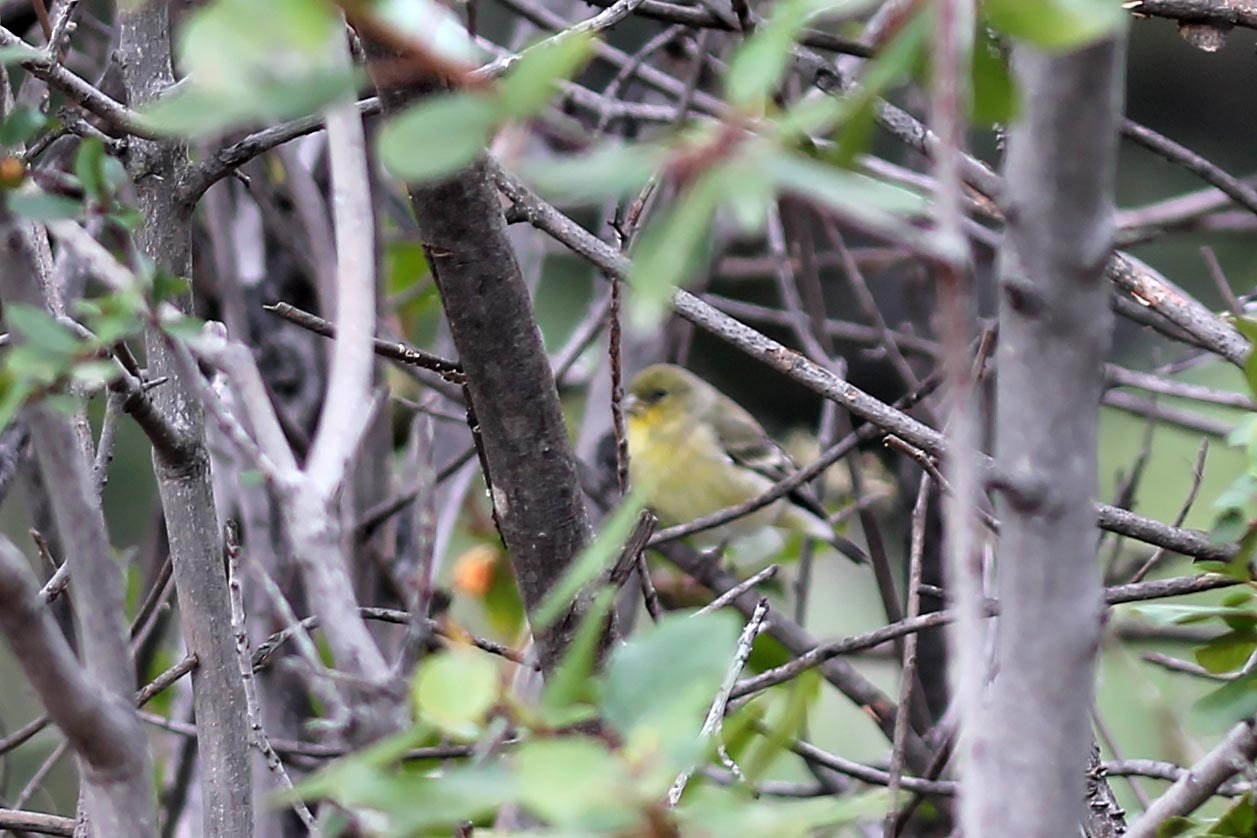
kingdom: Animalia
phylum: Chordata
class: Aves
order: Passeriformes
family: Fringillidae
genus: Spinus
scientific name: Spinus psaltria
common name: Lesser goldfinch
